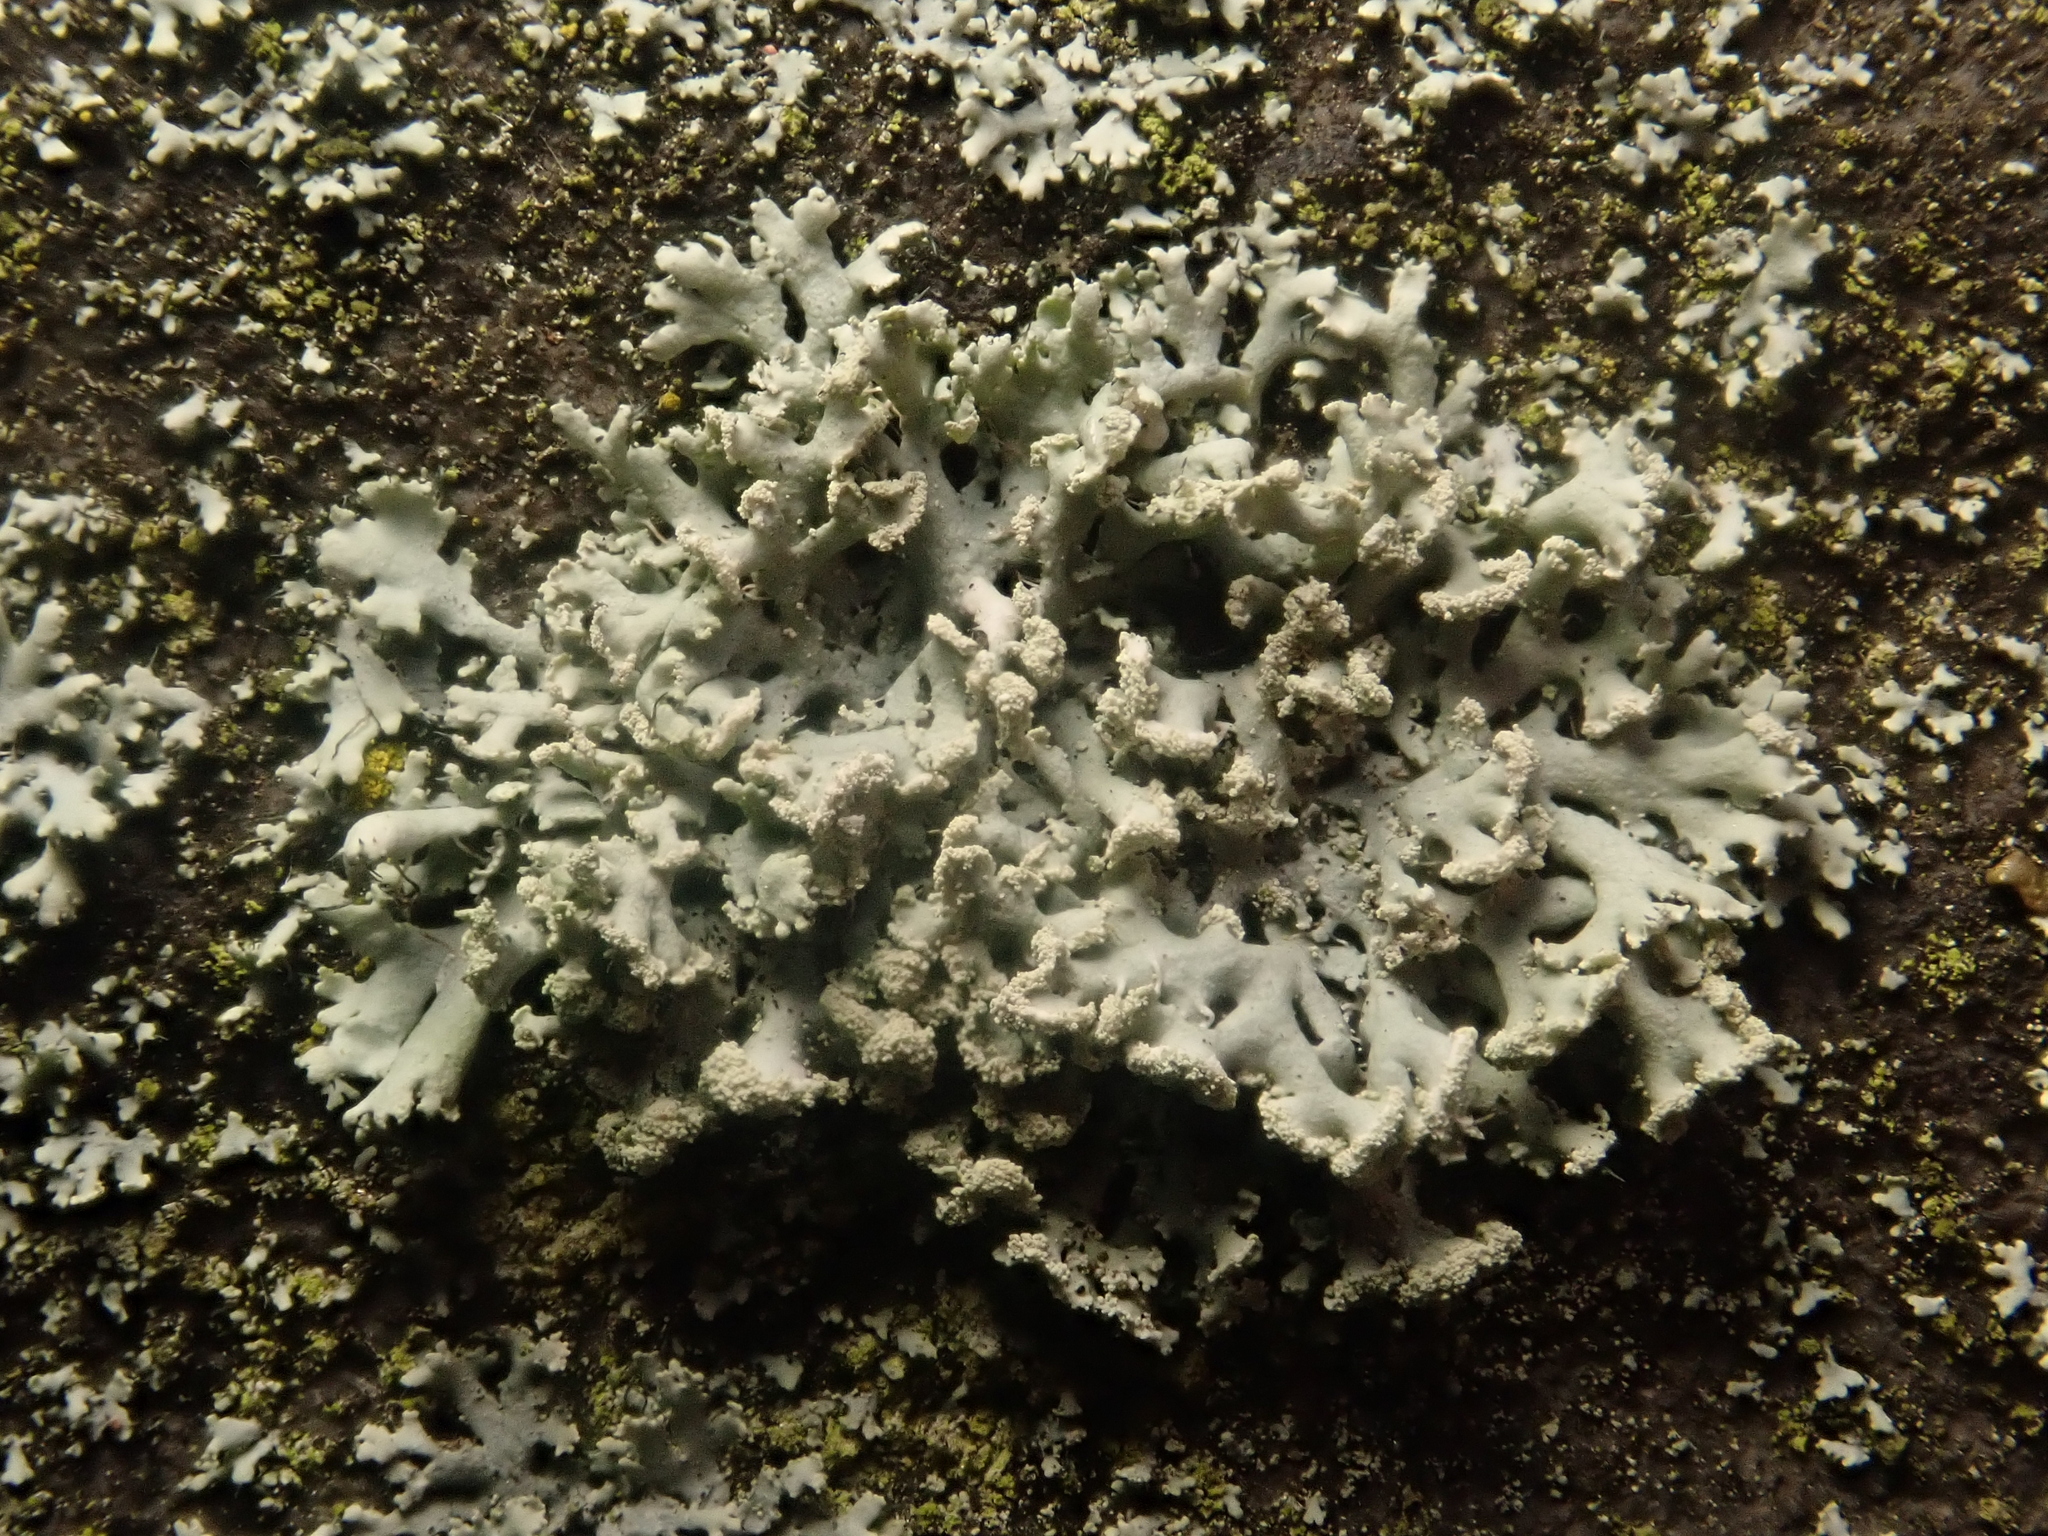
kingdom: Fungi
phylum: Ascomycota
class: Lecanoromycetes
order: Caliciales
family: Physciaceae
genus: Physcia
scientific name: Physcia tenella
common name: Fringed rosette lichen
